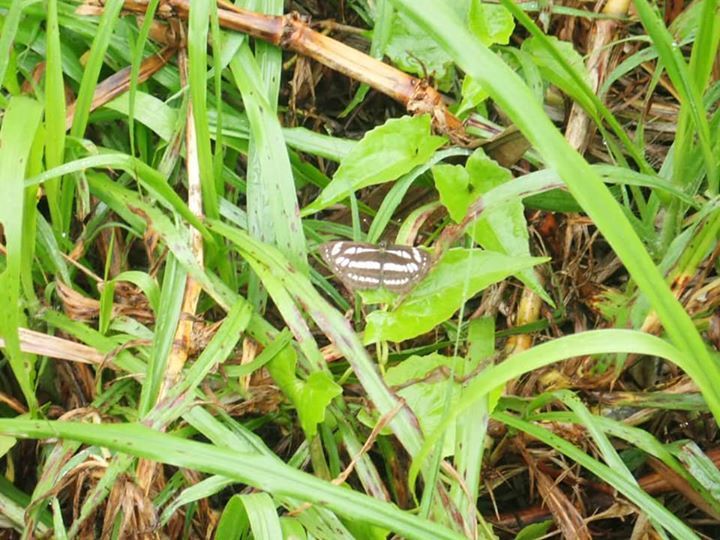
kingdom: Animalia
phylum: Arthropoda
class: Insecta
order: Lepidoptera
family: Nymphalidae
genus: Neptis
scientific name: Neptis hylas
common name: Common sailer
